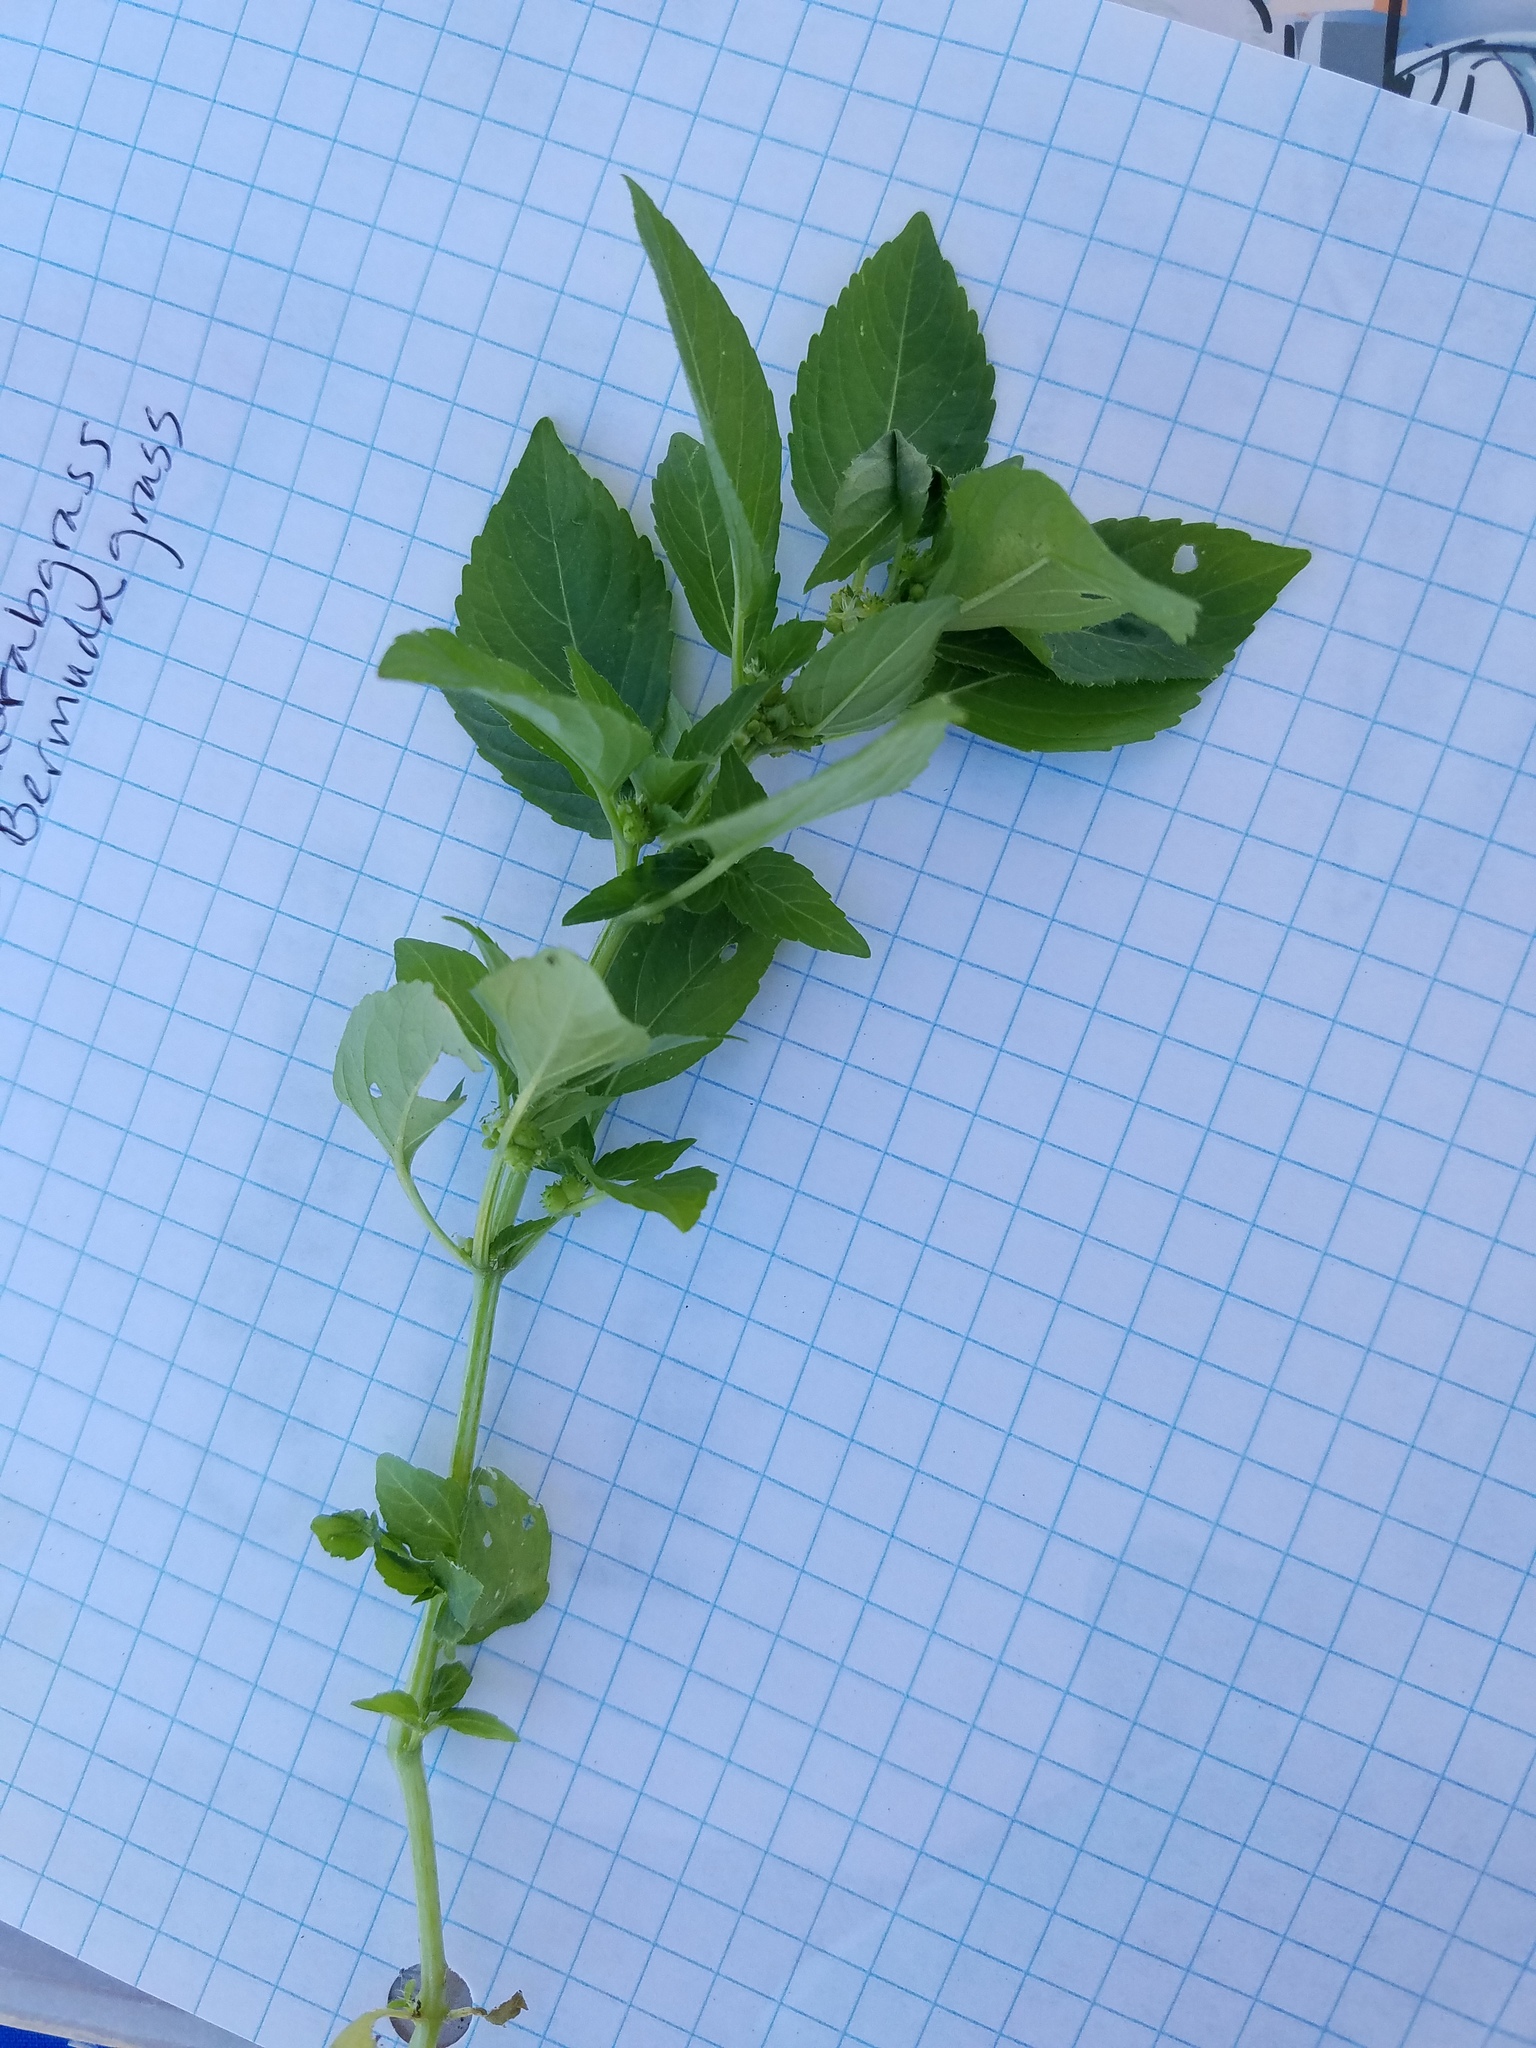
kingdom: Plantae
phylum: Tracheophyta
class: Magnoliopsida
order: Malpighiales
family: Euphorbiaceae
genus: Mercurialis
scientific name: Mercurialis annua
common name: Annual mercury
